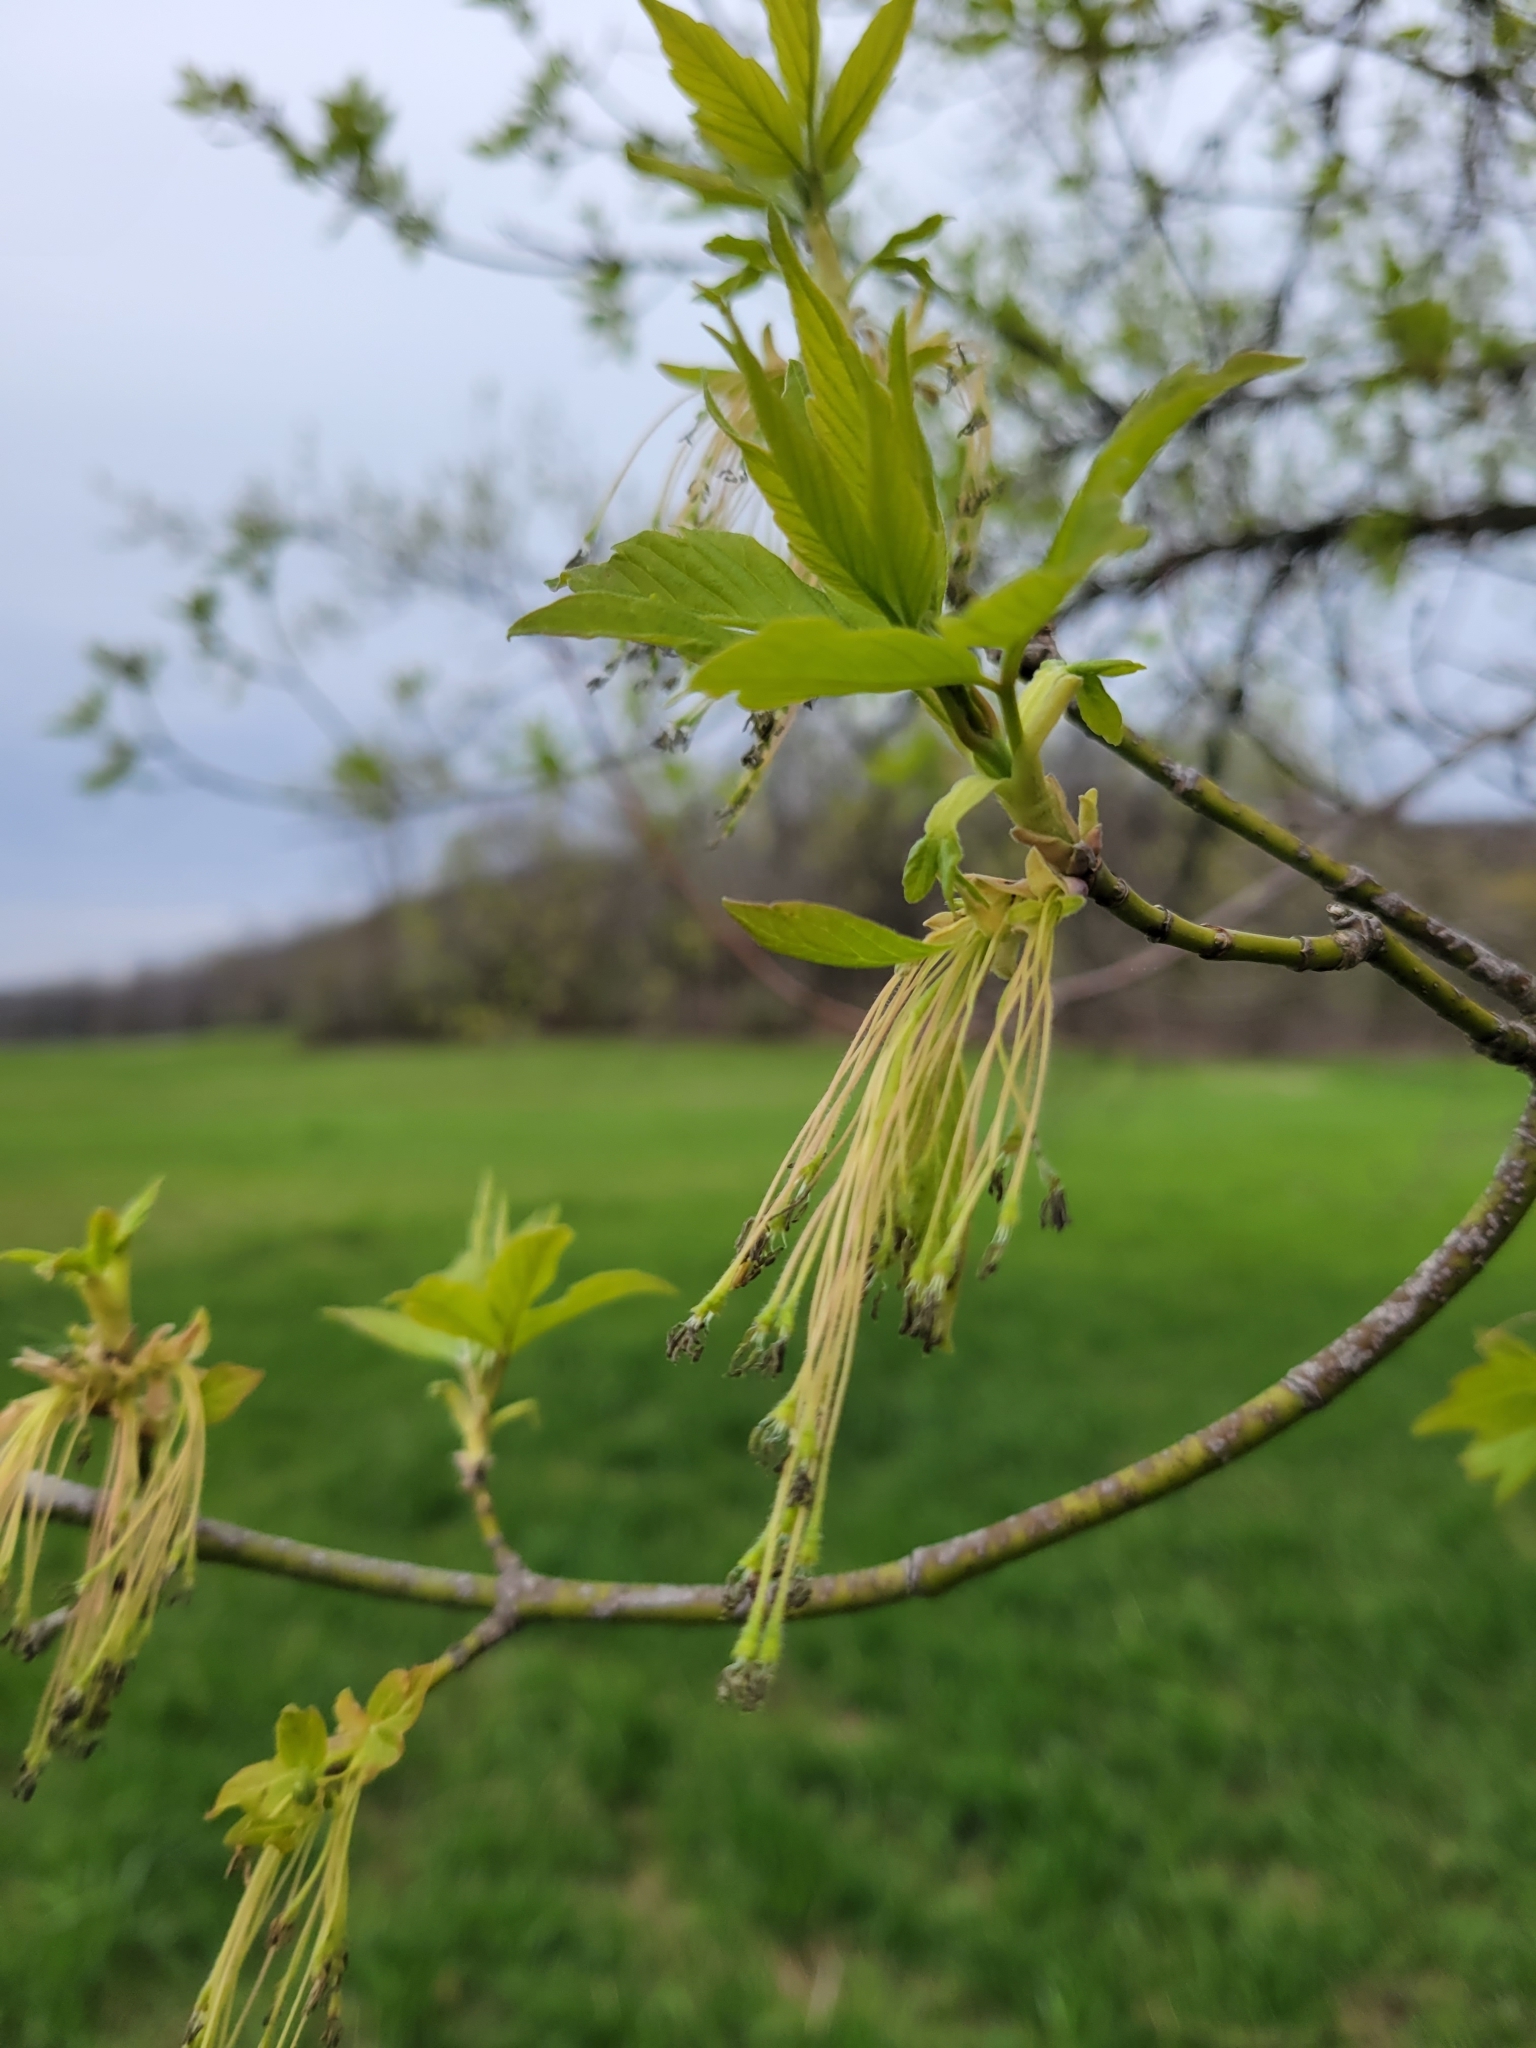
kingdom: Plantae
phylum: Tracheophyta
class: Magnoliopsida
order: Sapindales
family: Sapindaceae
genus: Acer
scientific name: Acer negundo
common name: Ashleaf maple
